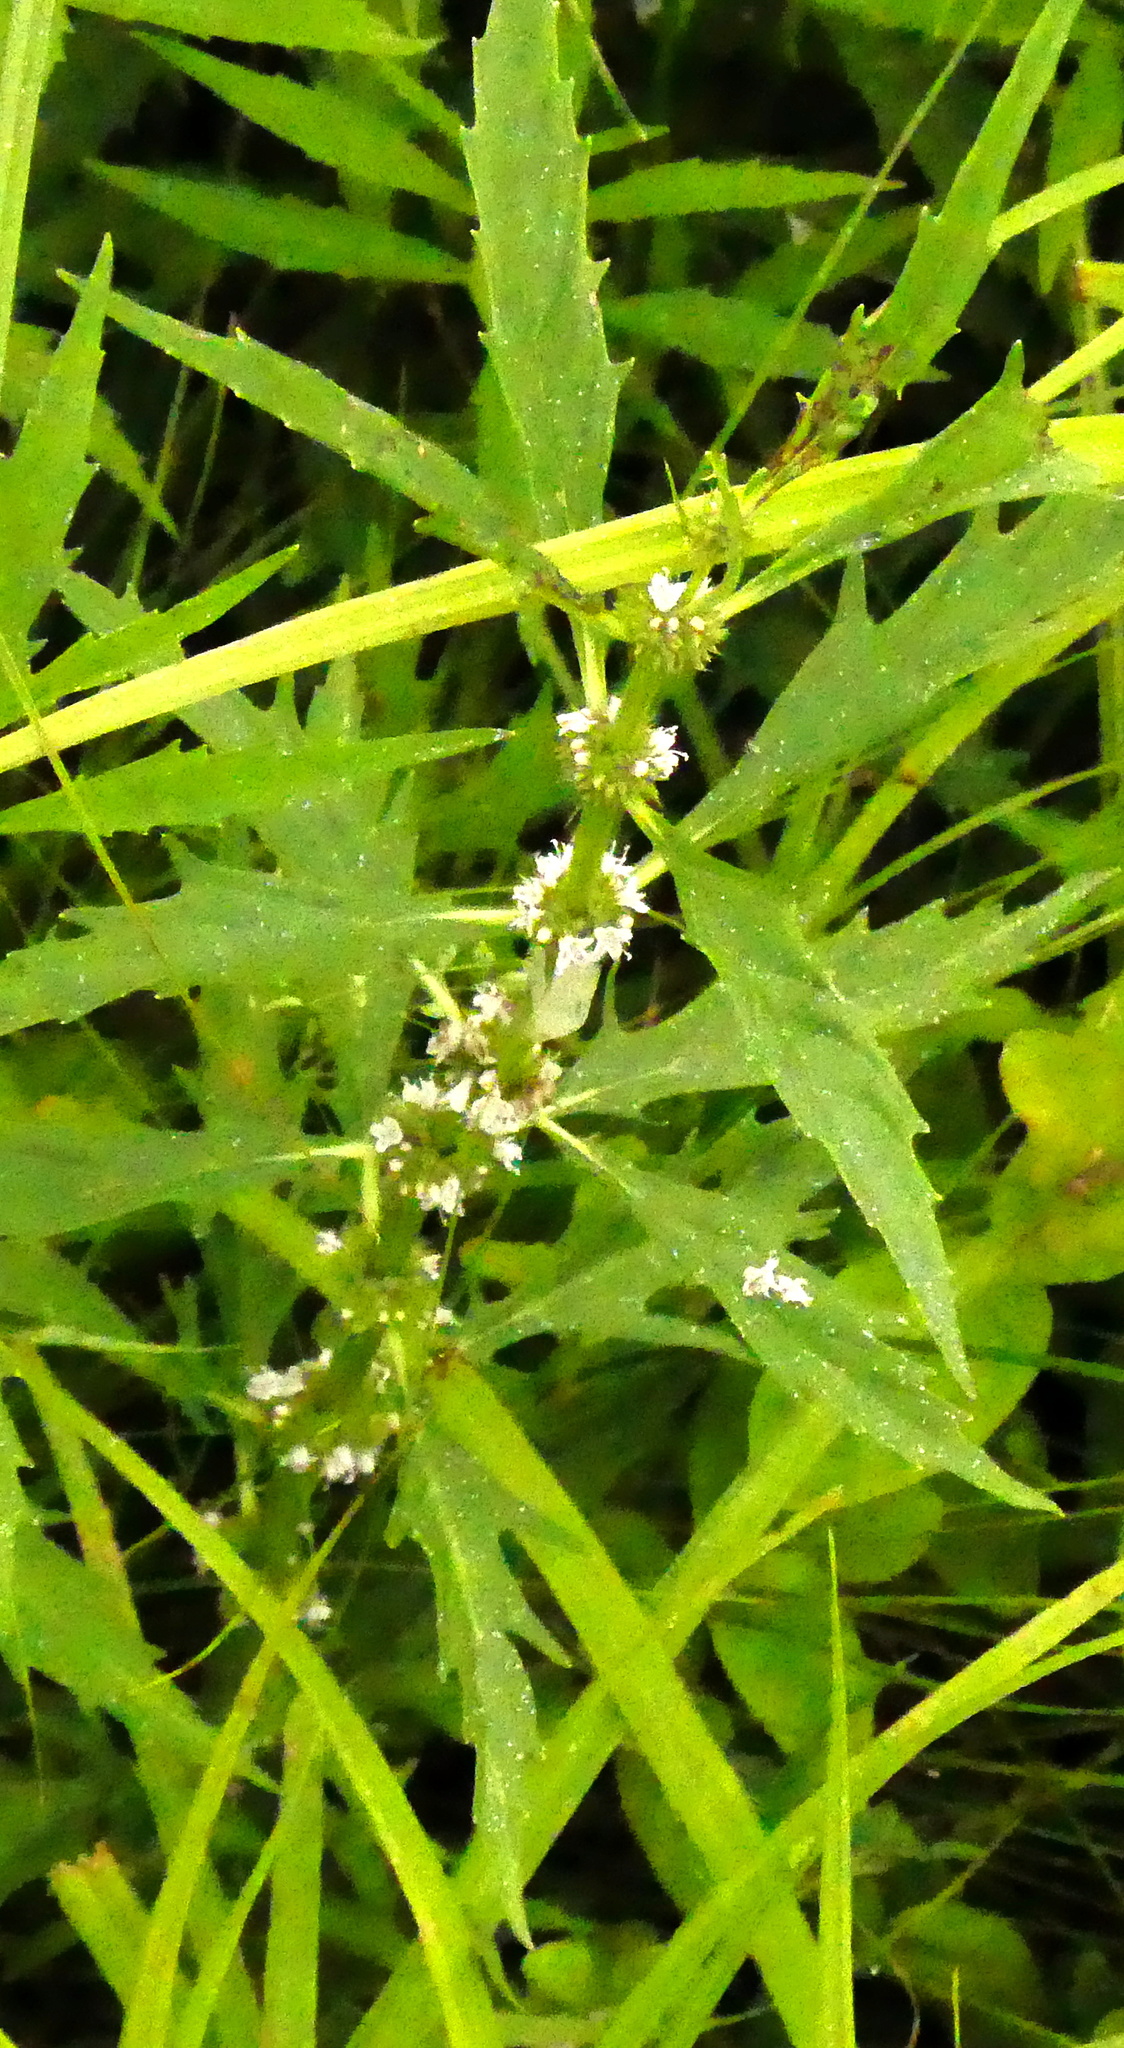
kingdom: Plantae
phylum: Tracheophyta
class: Magnoliopsida
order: Lamiales
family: Lamiaceae
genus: Lycopus
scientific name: Lycopus americanus
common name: American bugleweed
